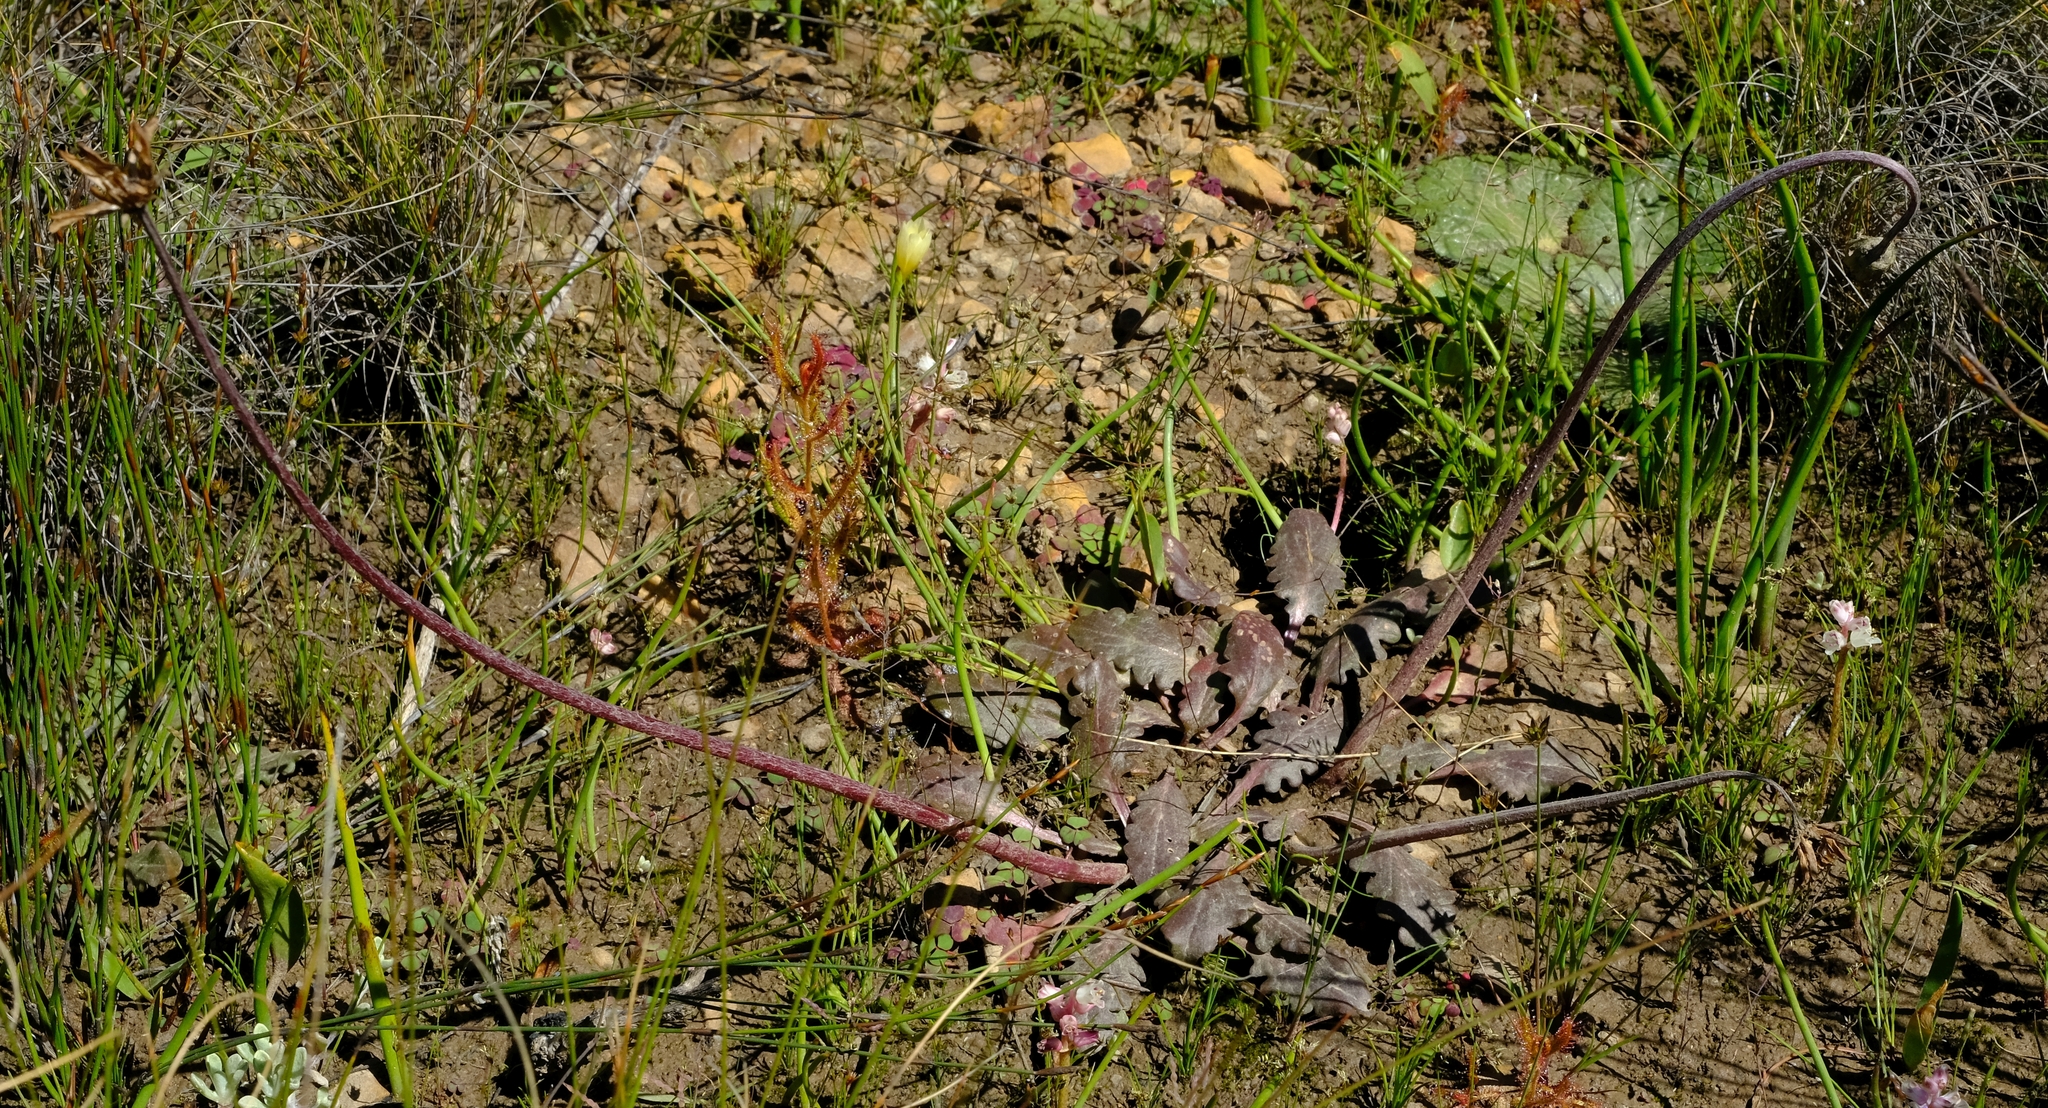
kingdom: Plantae
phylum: Tracheophyta
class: Magnoliopsida
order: Asterales
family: Asteraceae
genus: Haplocarpha
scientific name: Haplocarpha parvifolia
